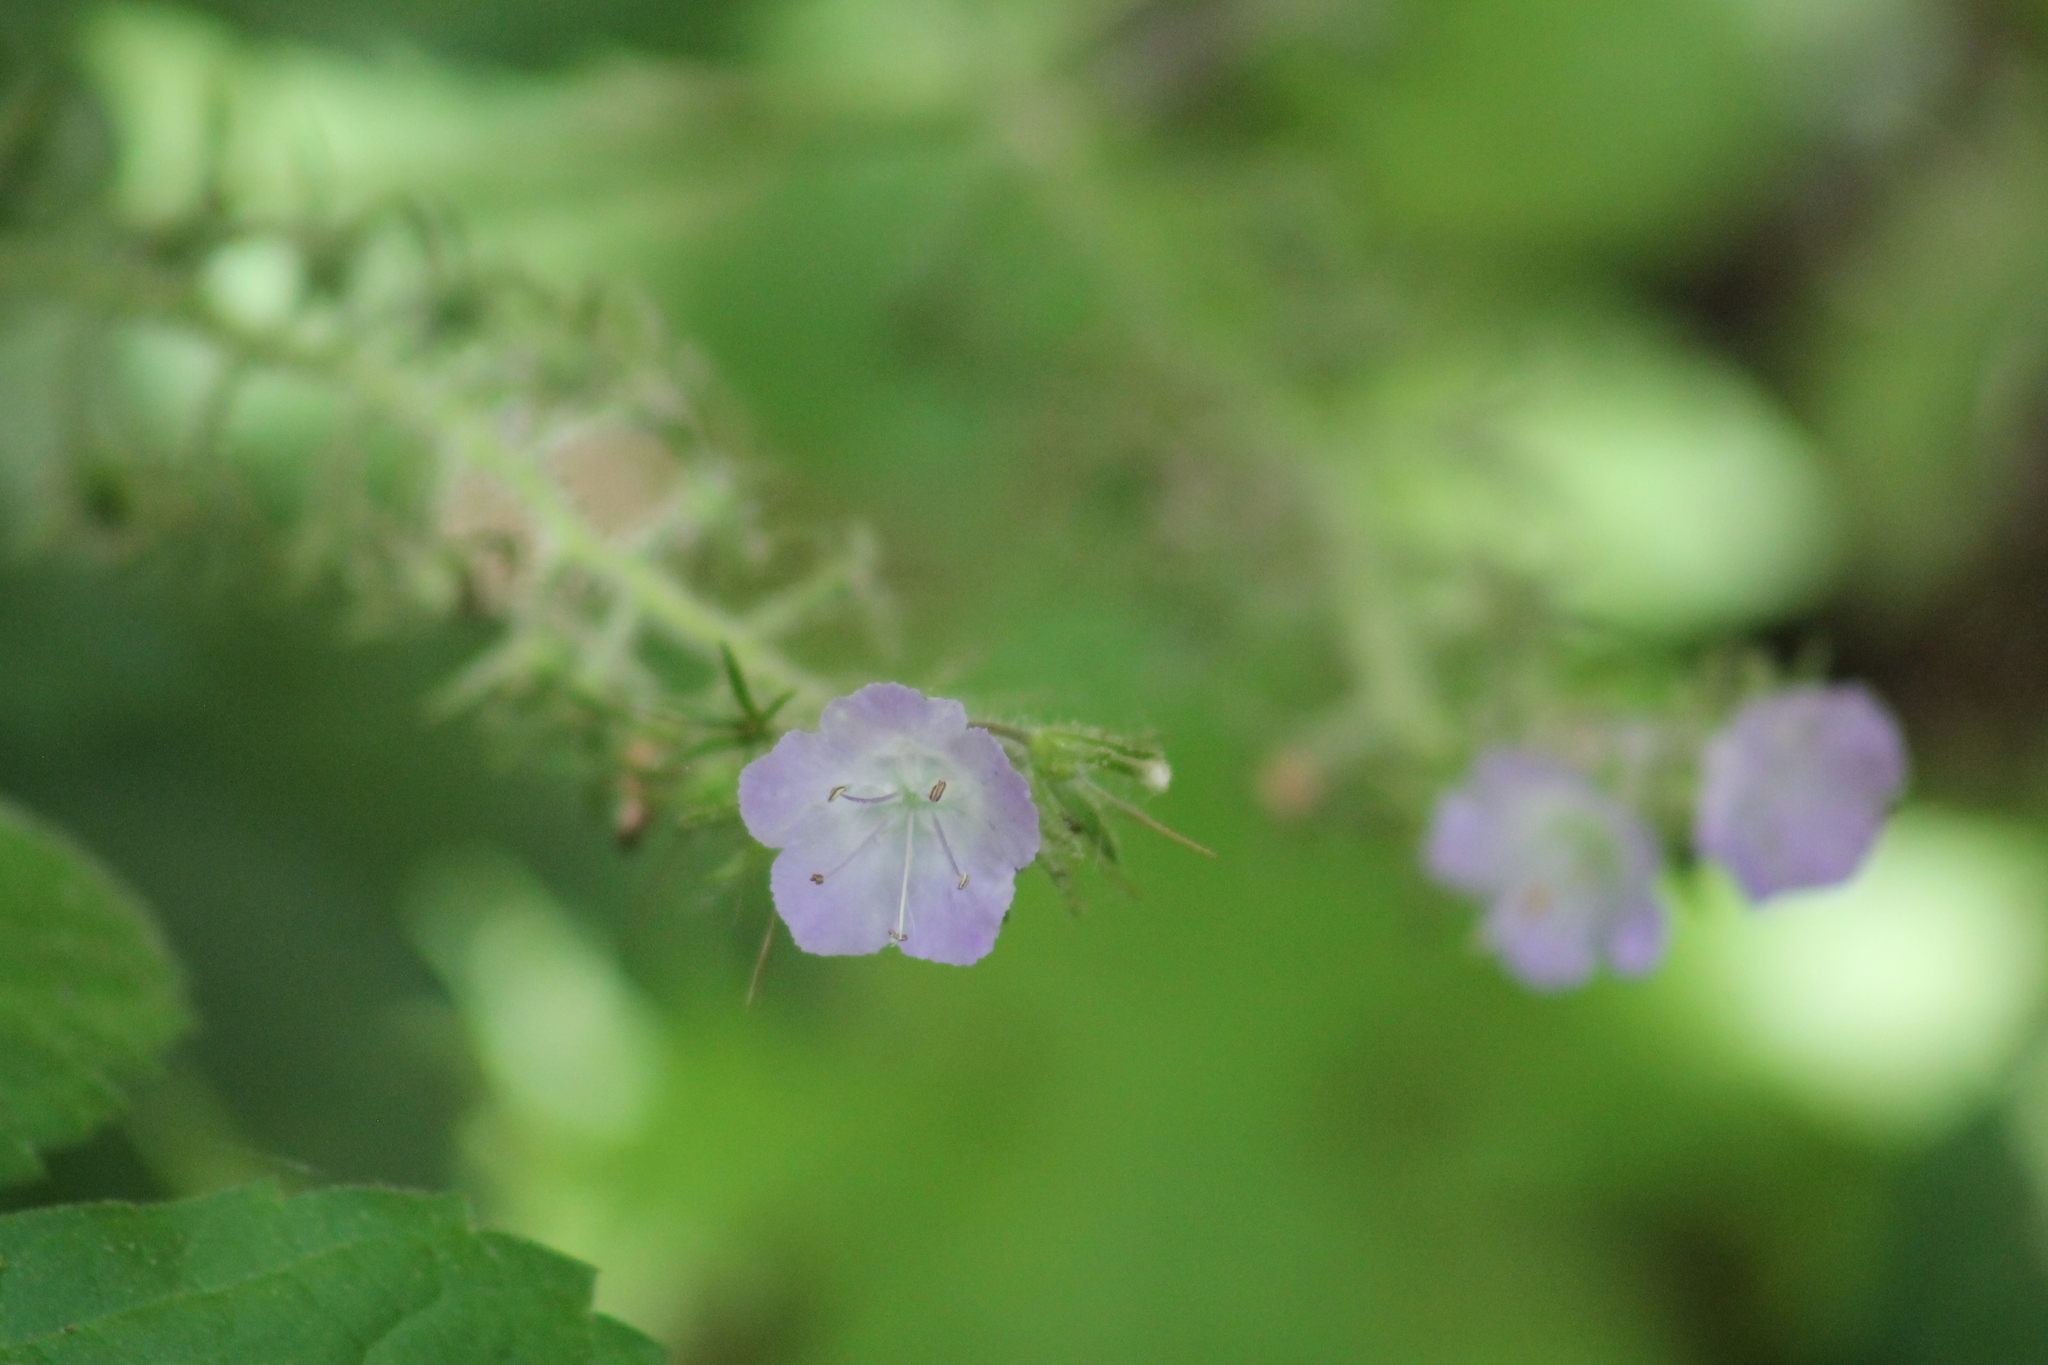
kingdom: Plantae
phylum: Tracheophyta
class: Magnoliopsida
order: Boraginales
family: Hydrophyllaceae
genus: Phacelia
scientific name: Phacelia bipinnatifida
